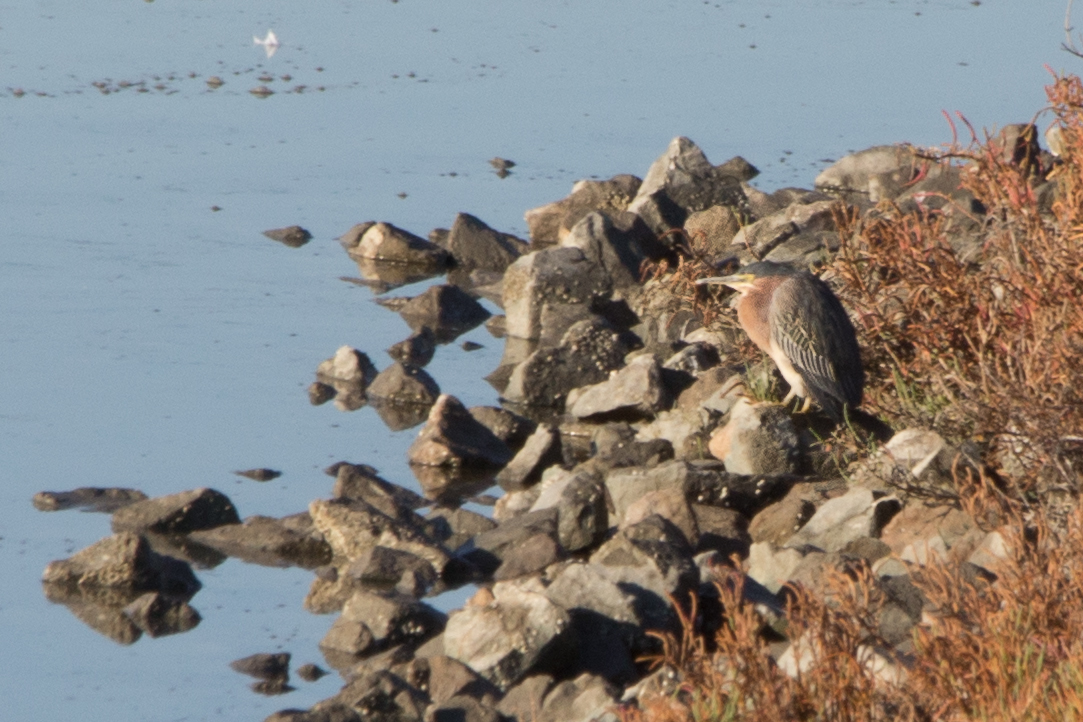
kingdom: Animalia
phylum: Chordata
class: Aves
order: Pelecaniformes
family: Ardeidae
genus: Butorides
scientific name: Butorides virescens
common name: Green heron
